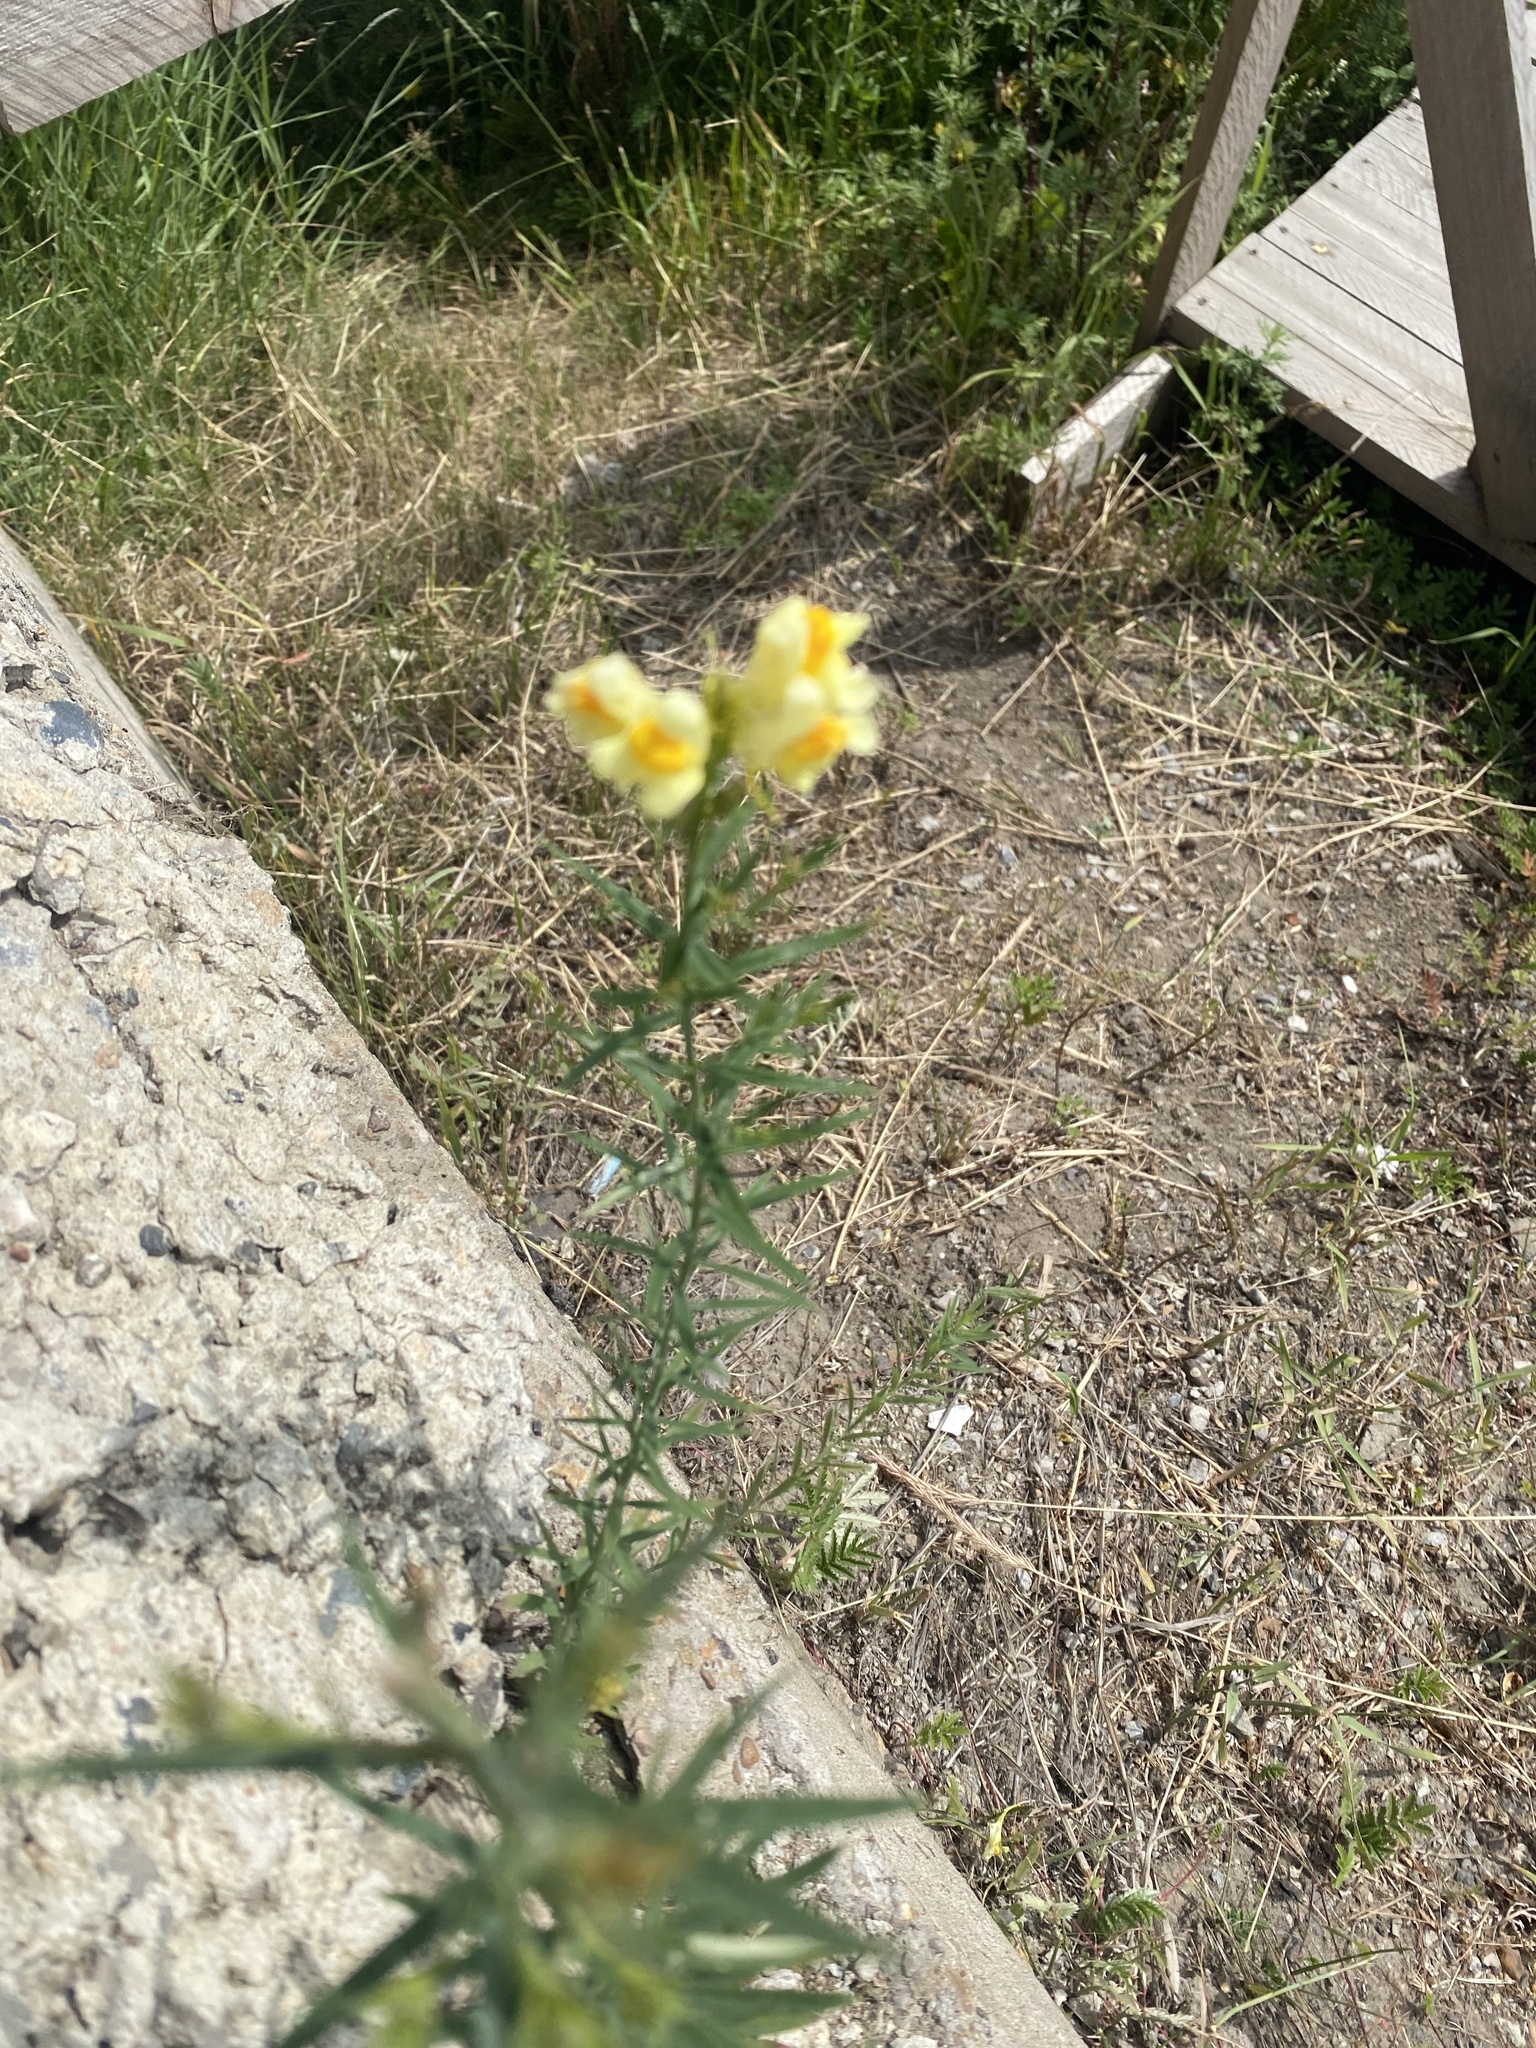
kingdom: Plantae
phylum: Tracheophyta
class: Magnoliopsida
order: Lamiales
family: Plantaginaceae
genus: Linaria
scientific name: Linaria vulgaris
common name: Butter and eggs
